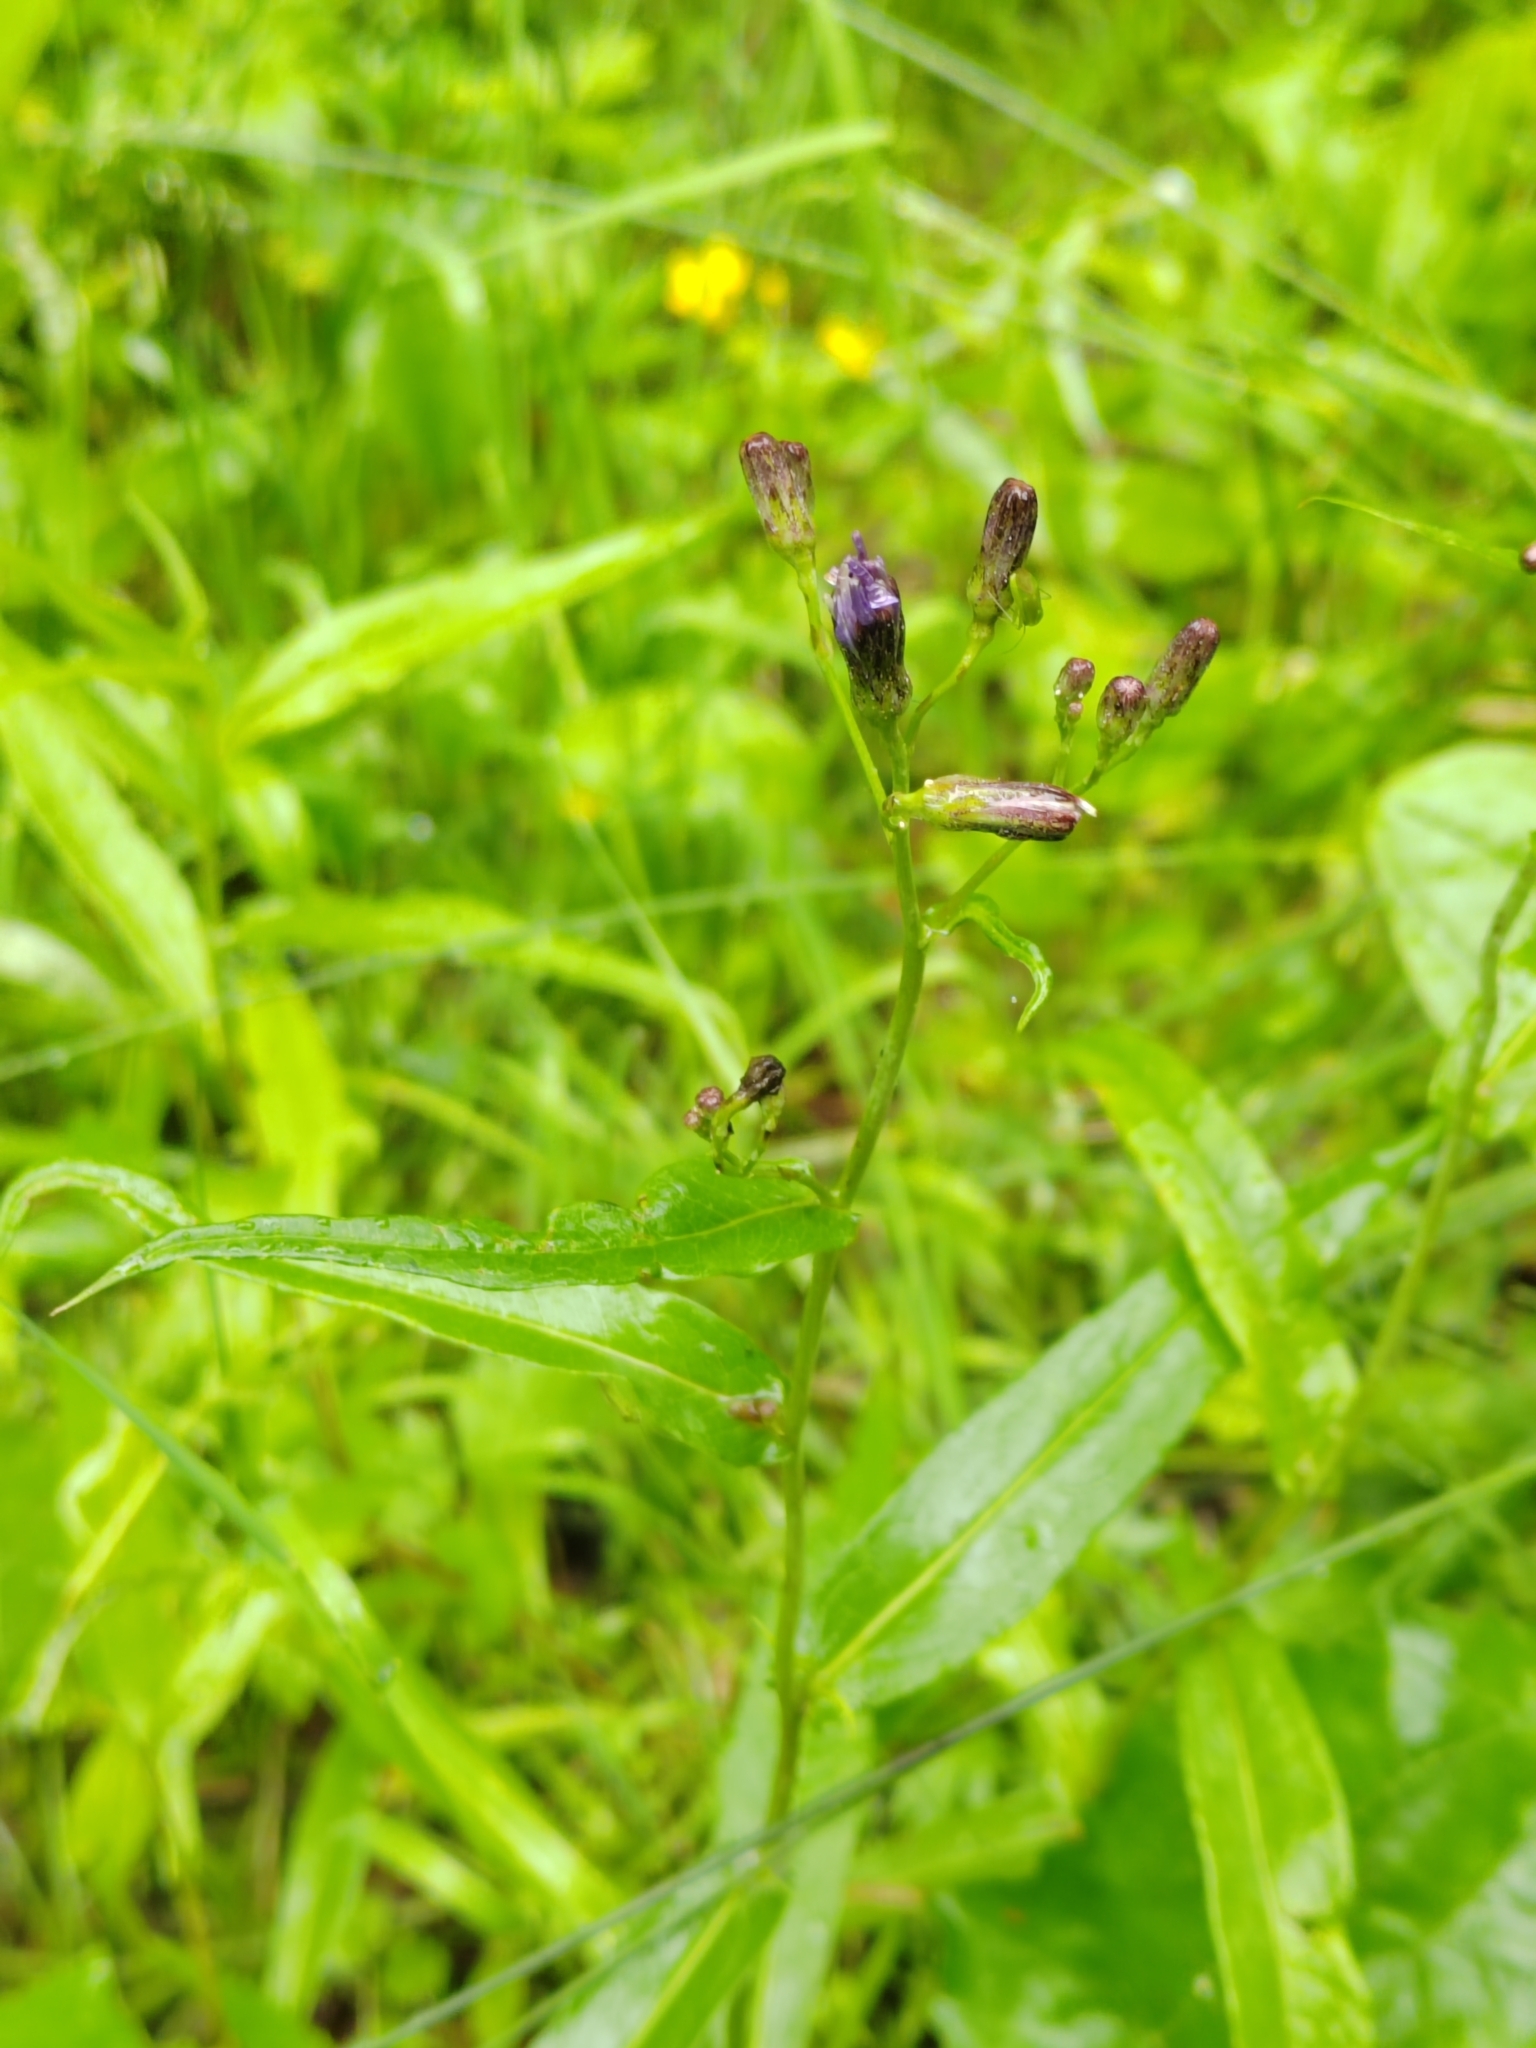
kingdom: Plantae
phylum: Tracheophyta
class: Magnoliopsida
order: Asterales
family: Asteraceae
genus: Lactuca
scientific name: Lactuca sibirica
